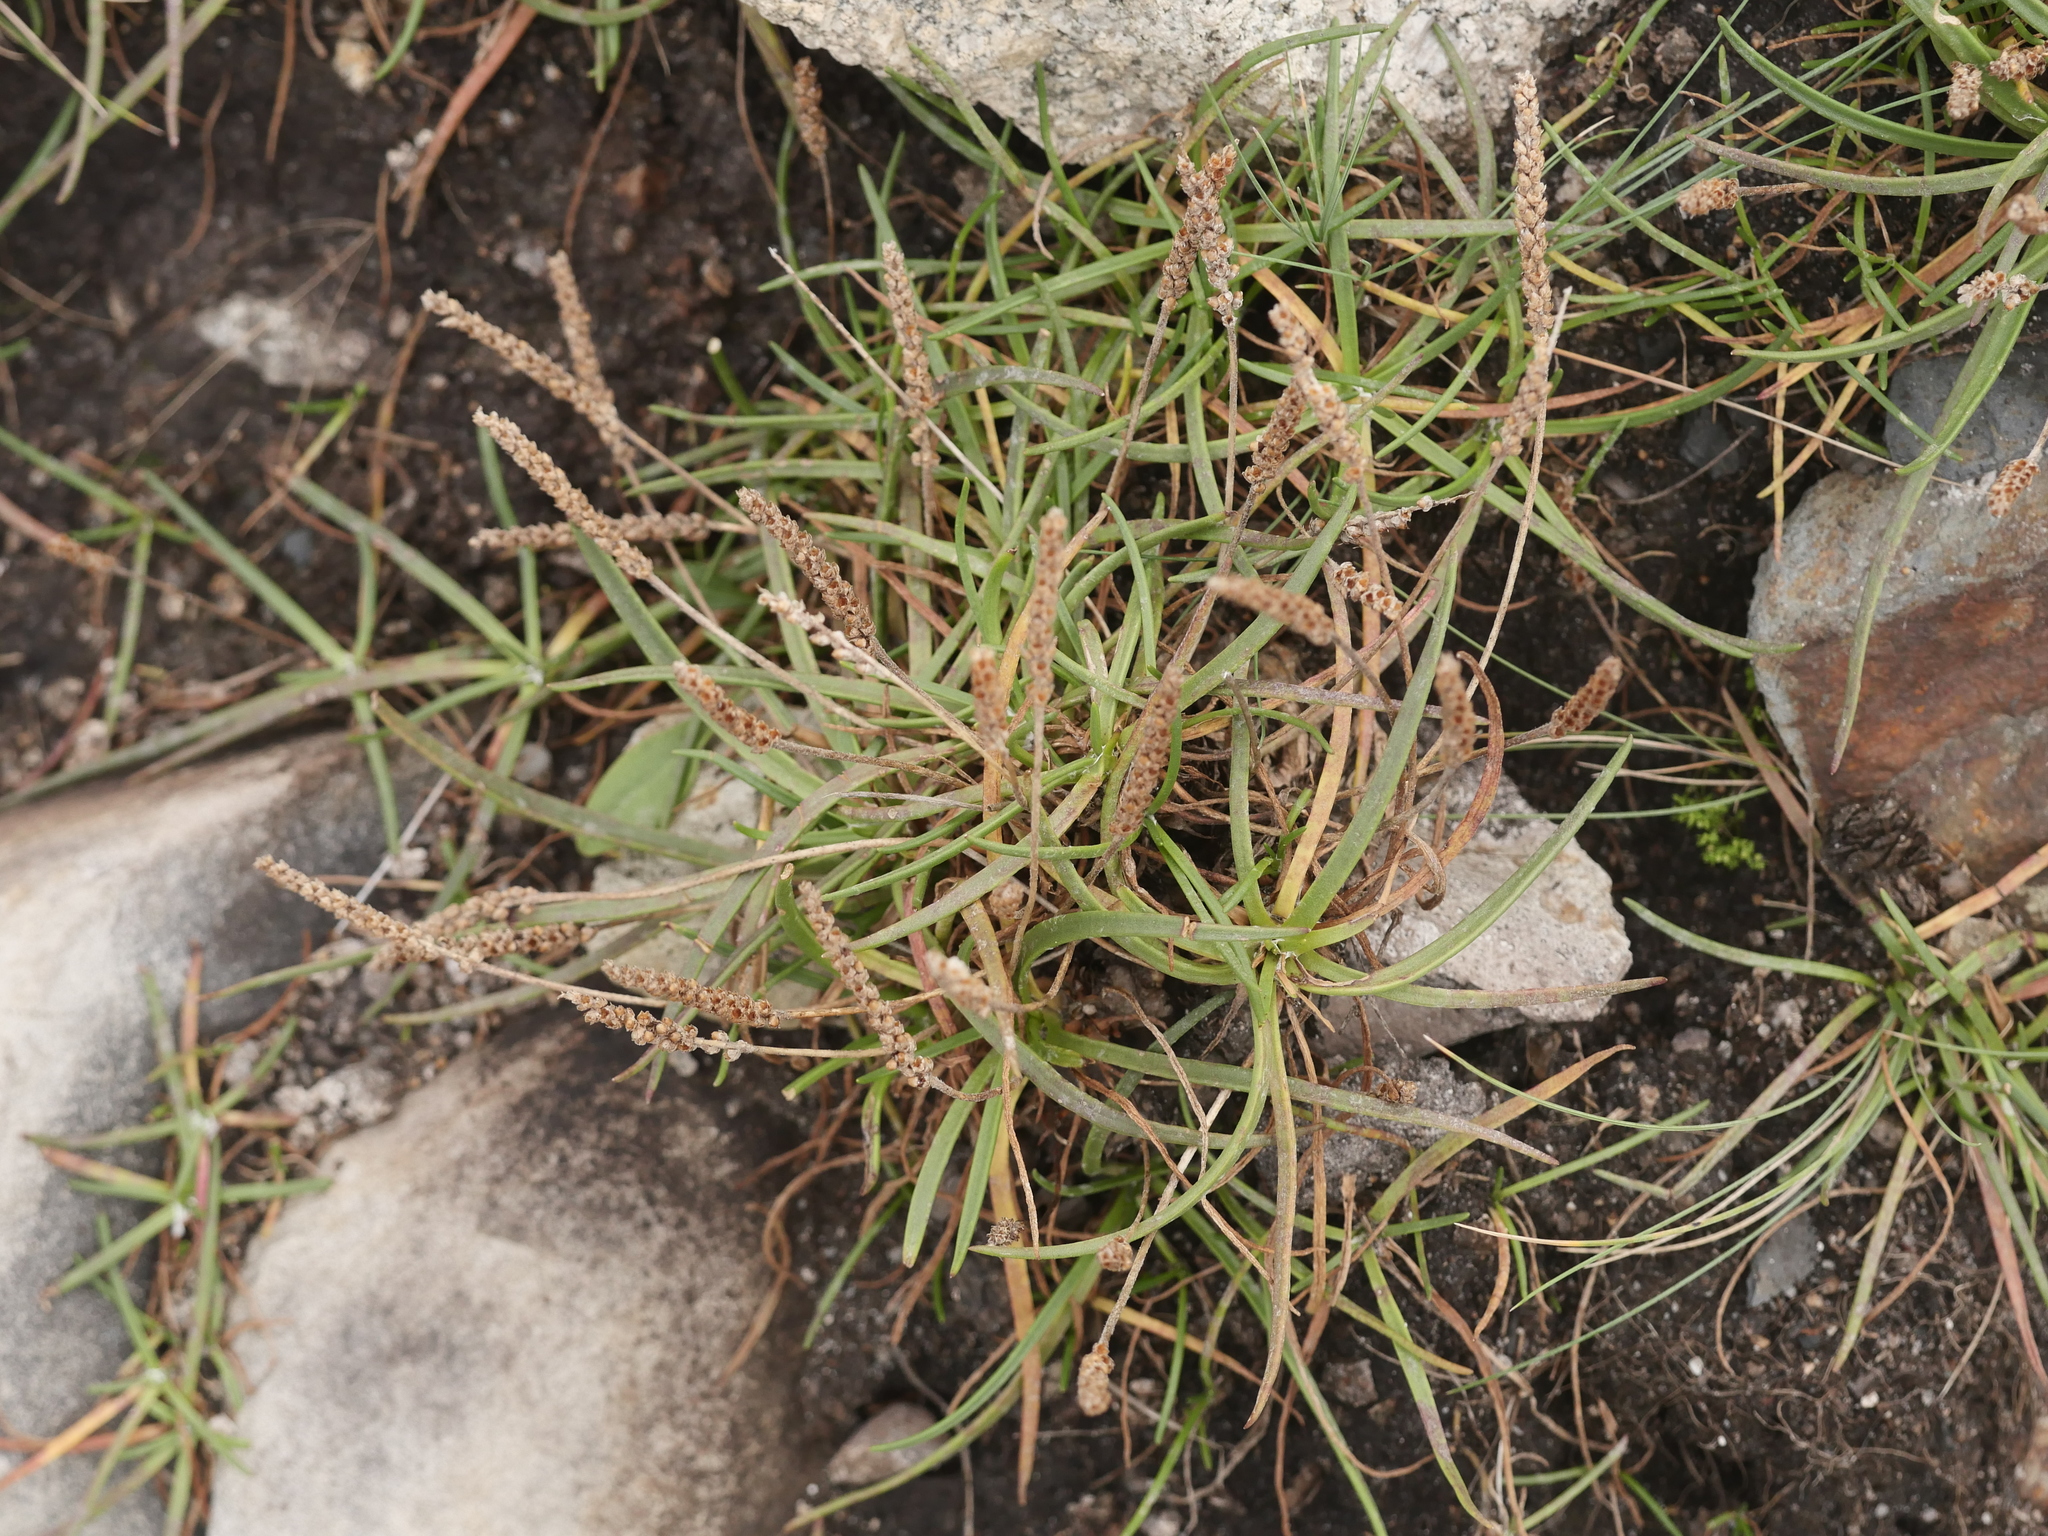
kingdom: Plantae
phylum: Tracheophyta
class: Magnoliopsida
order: Lamiales
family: Plantaginaceae
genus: Plantago
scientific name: Plantago maritima
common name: Sea plantain
